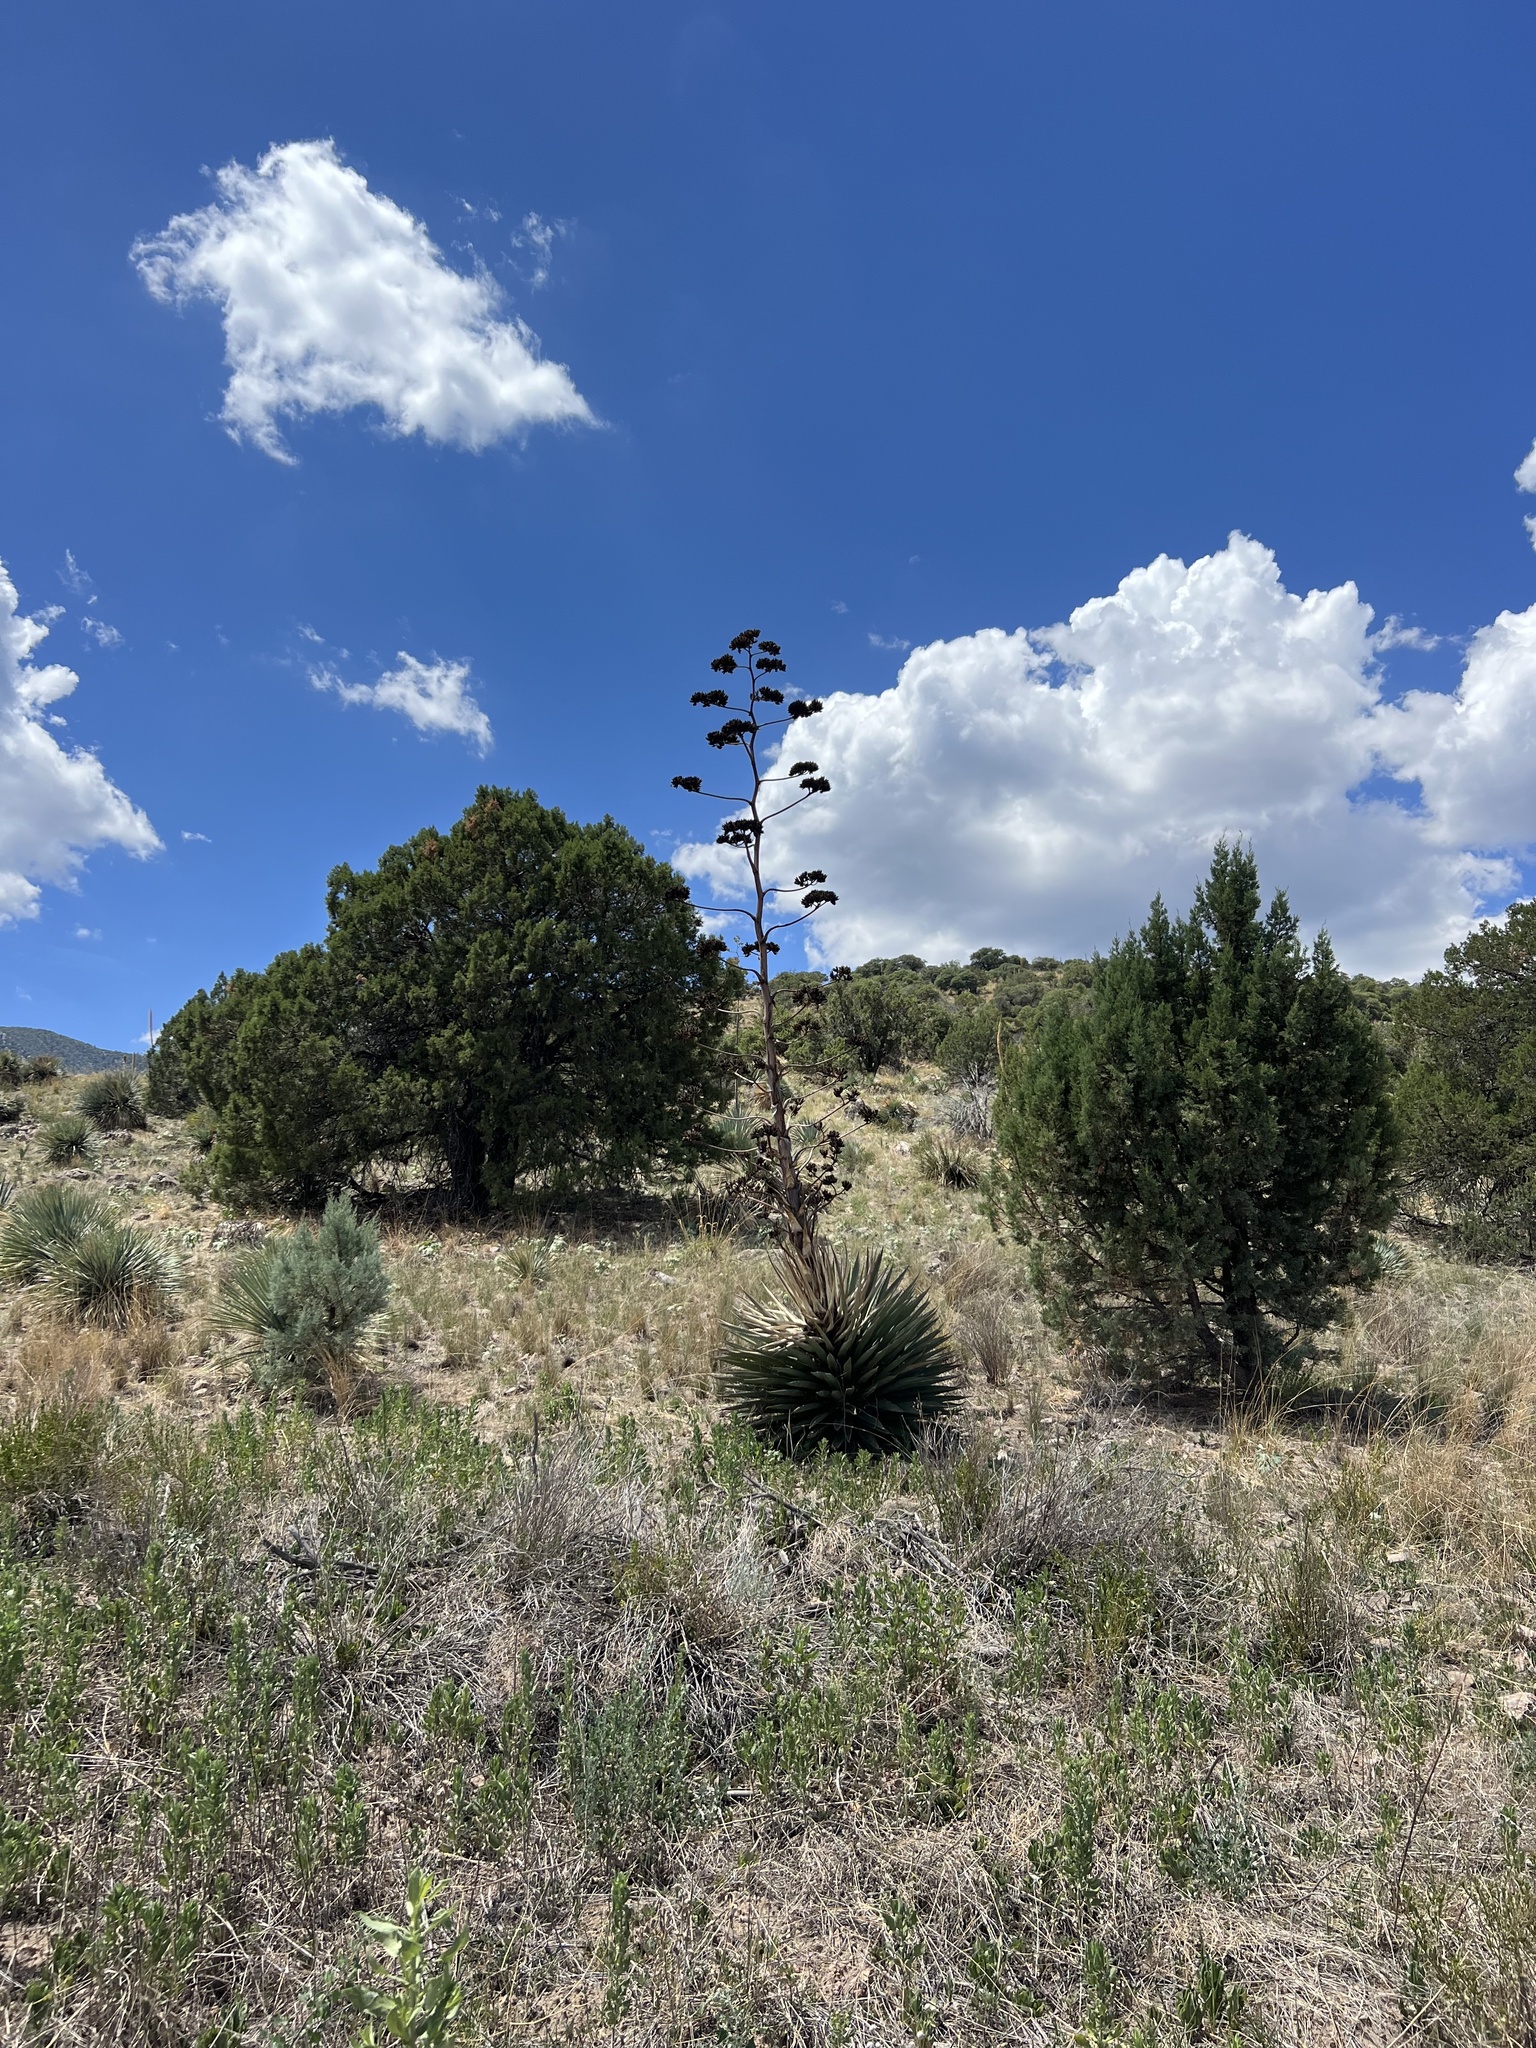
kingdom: Plantae
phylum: Tracheophyta
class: Liliopsida
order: Asparagales
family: Asparagaceae
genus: Agave
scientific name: Agave palmeri
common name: Palmer agave
